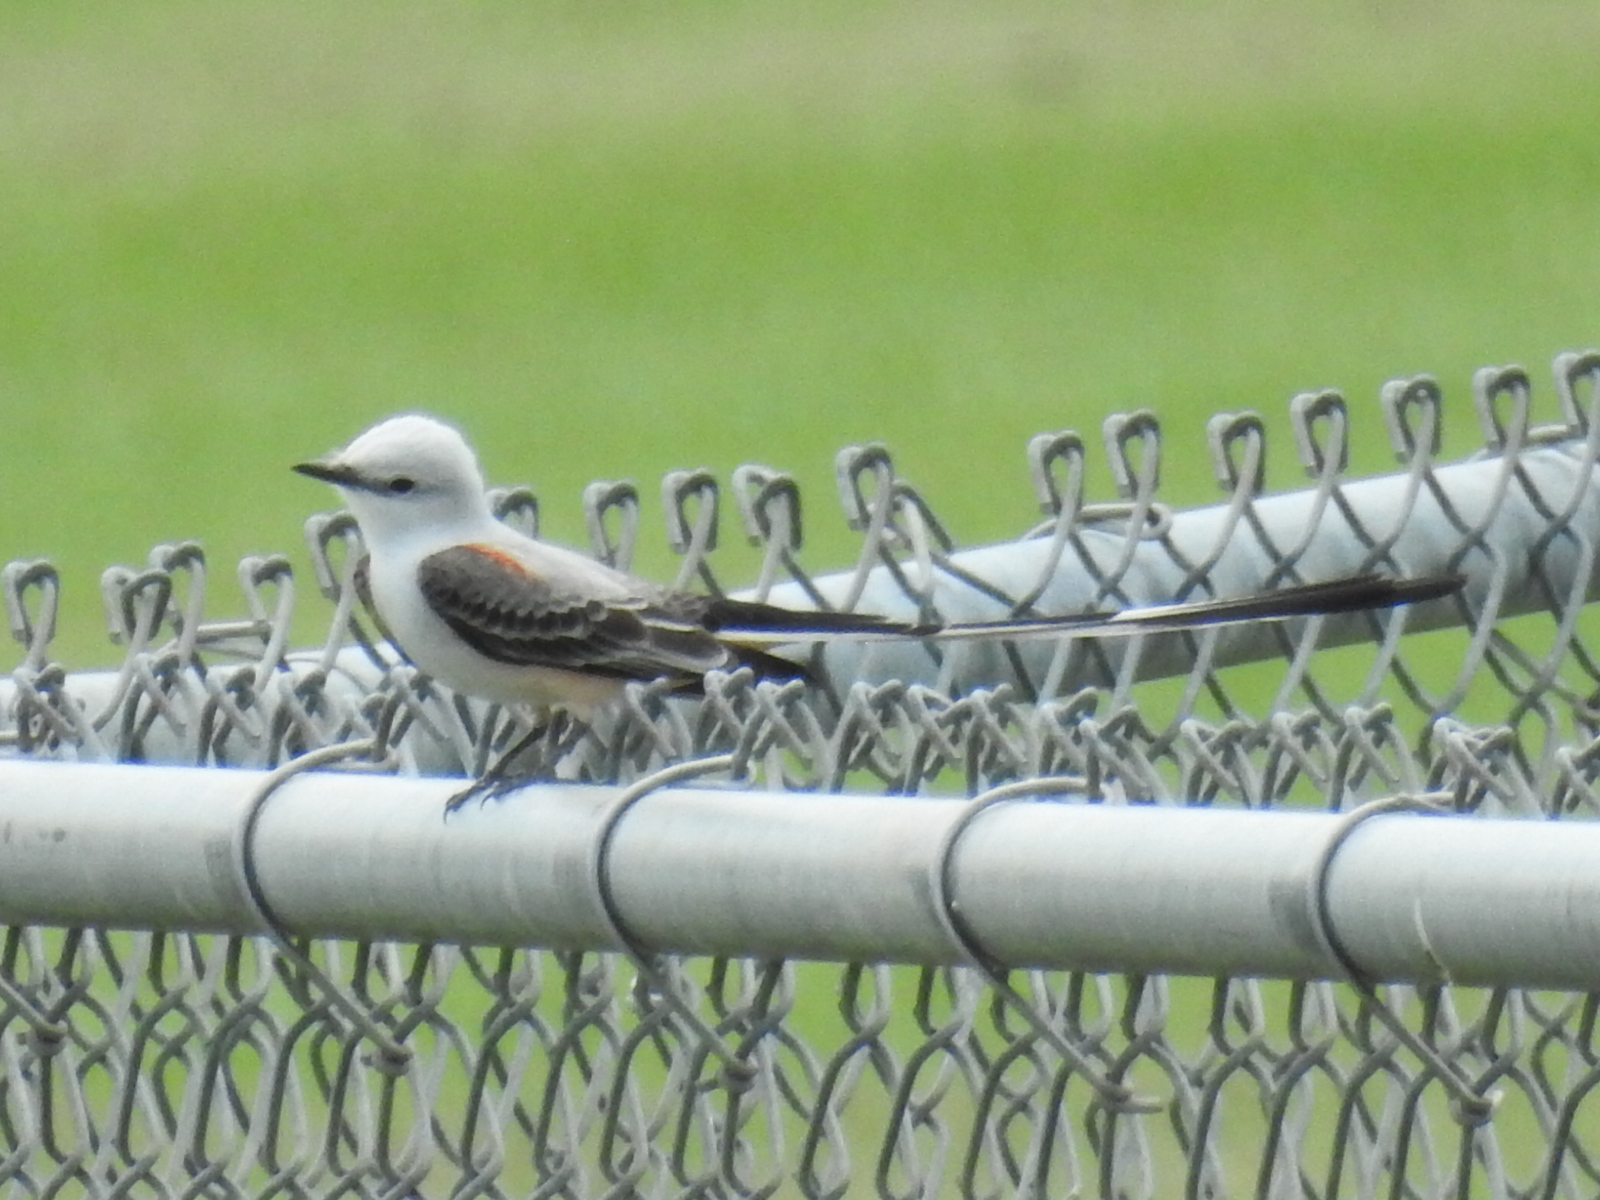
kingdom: Animalia
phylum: Chordata
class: Aves
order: Passeriformes
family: Tyrannidae
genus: Tyrannus
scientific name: Tyrannus forficatus
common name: Scissor-tailed flycatcher
